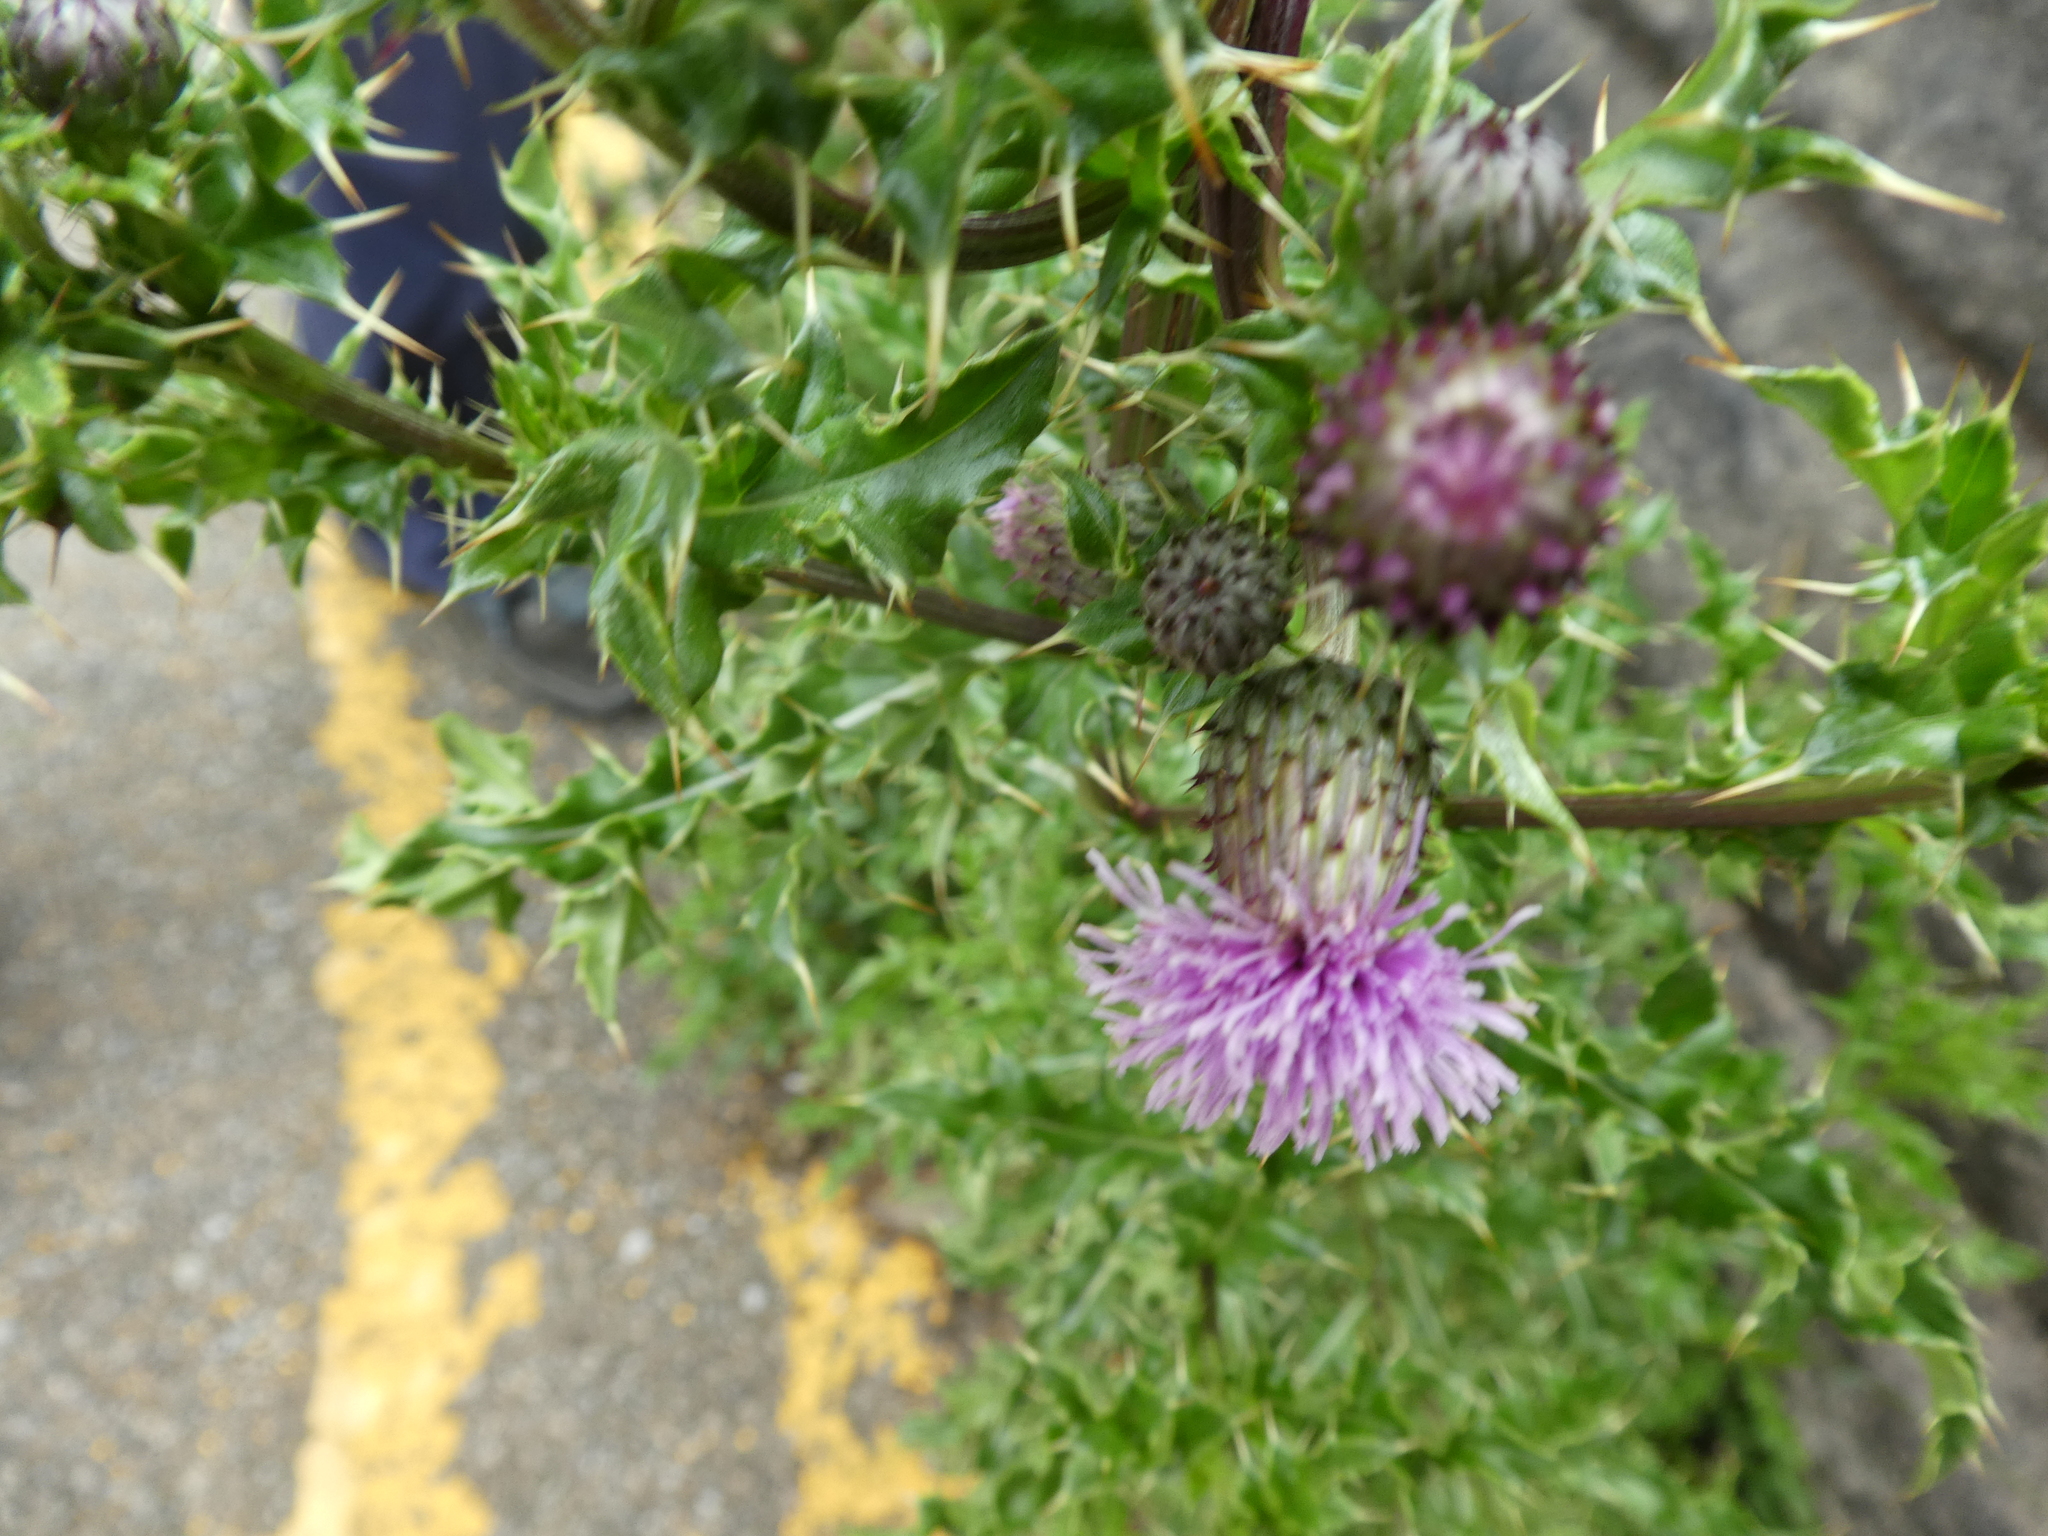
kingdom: Plantae
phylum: Tracheophyta
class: Magnoliopsida
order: Asterales
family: Asteraceae
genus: Cirsium
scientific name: Cirsium arvense
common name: Creeping thistle
